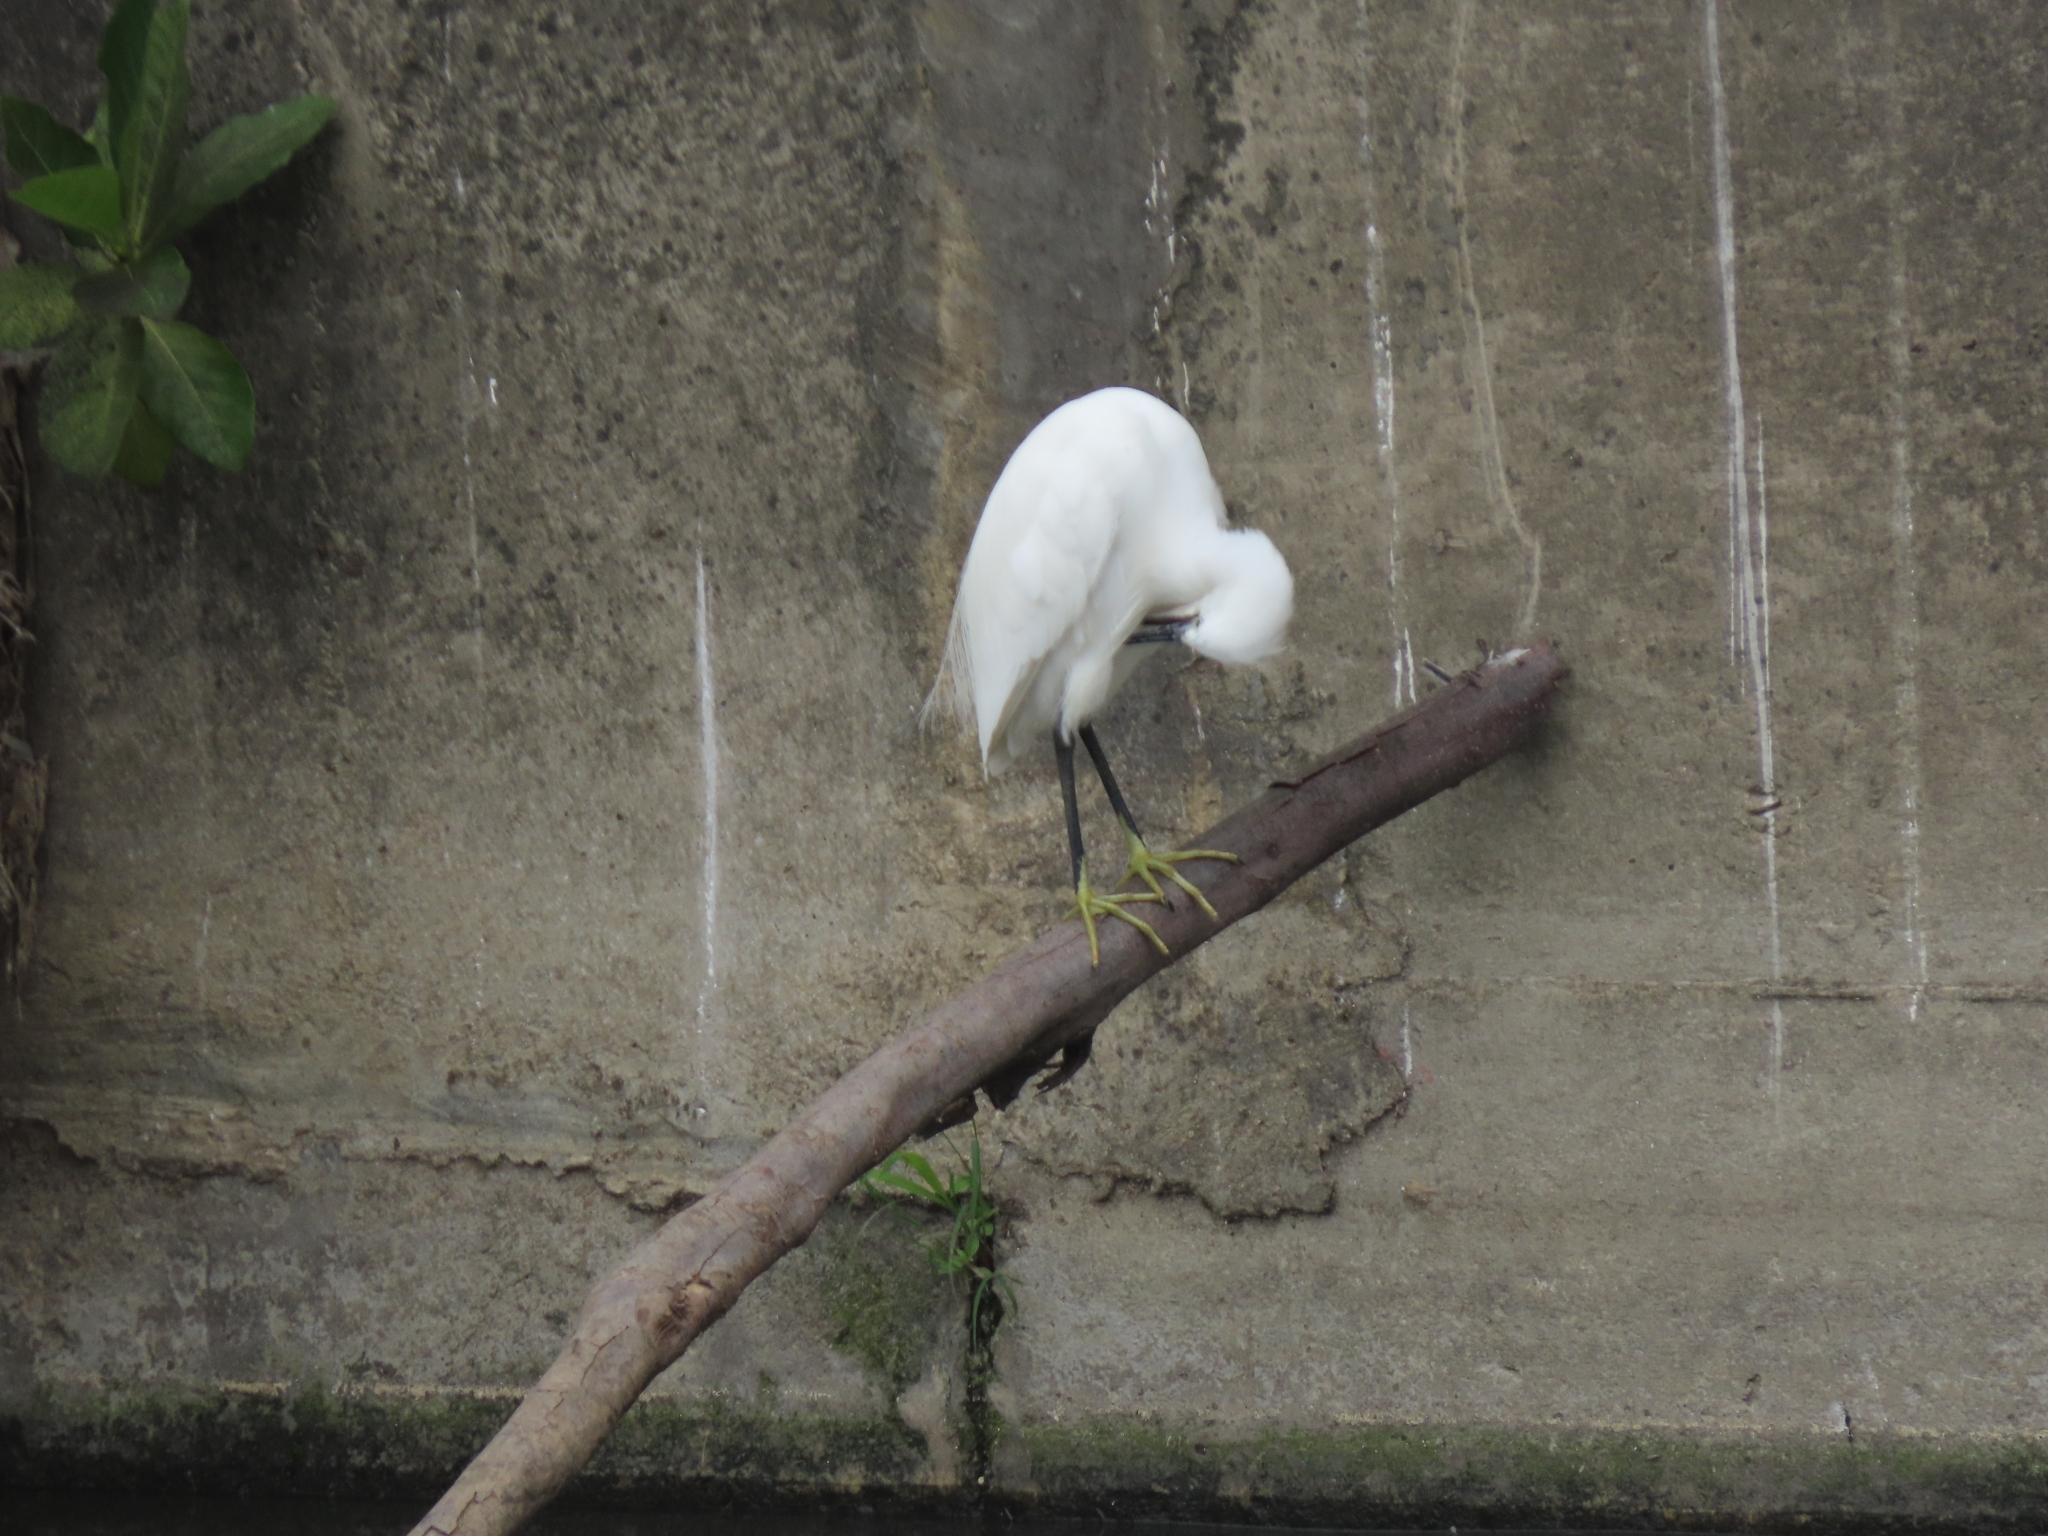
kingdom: Animalia
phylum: Chordata
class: Aves
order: Pelecaniformes
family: Ardeidae
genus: Egretta
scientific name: Egretta garzetta
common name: Little egret
